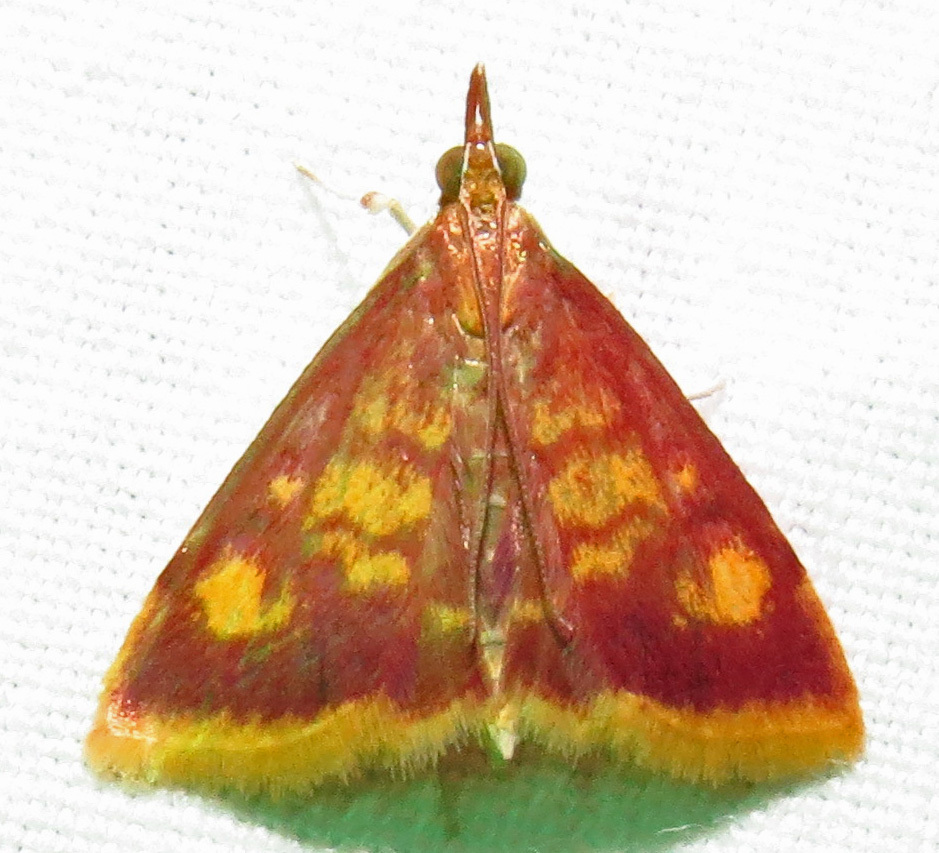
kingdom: Animalia
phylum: Arthropoda
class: Insecta
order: Lepidoptera
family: Crambidae
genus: Pyrausta
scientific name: Pyrausta acrionalis
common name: Mint-loving pyrausta moth
